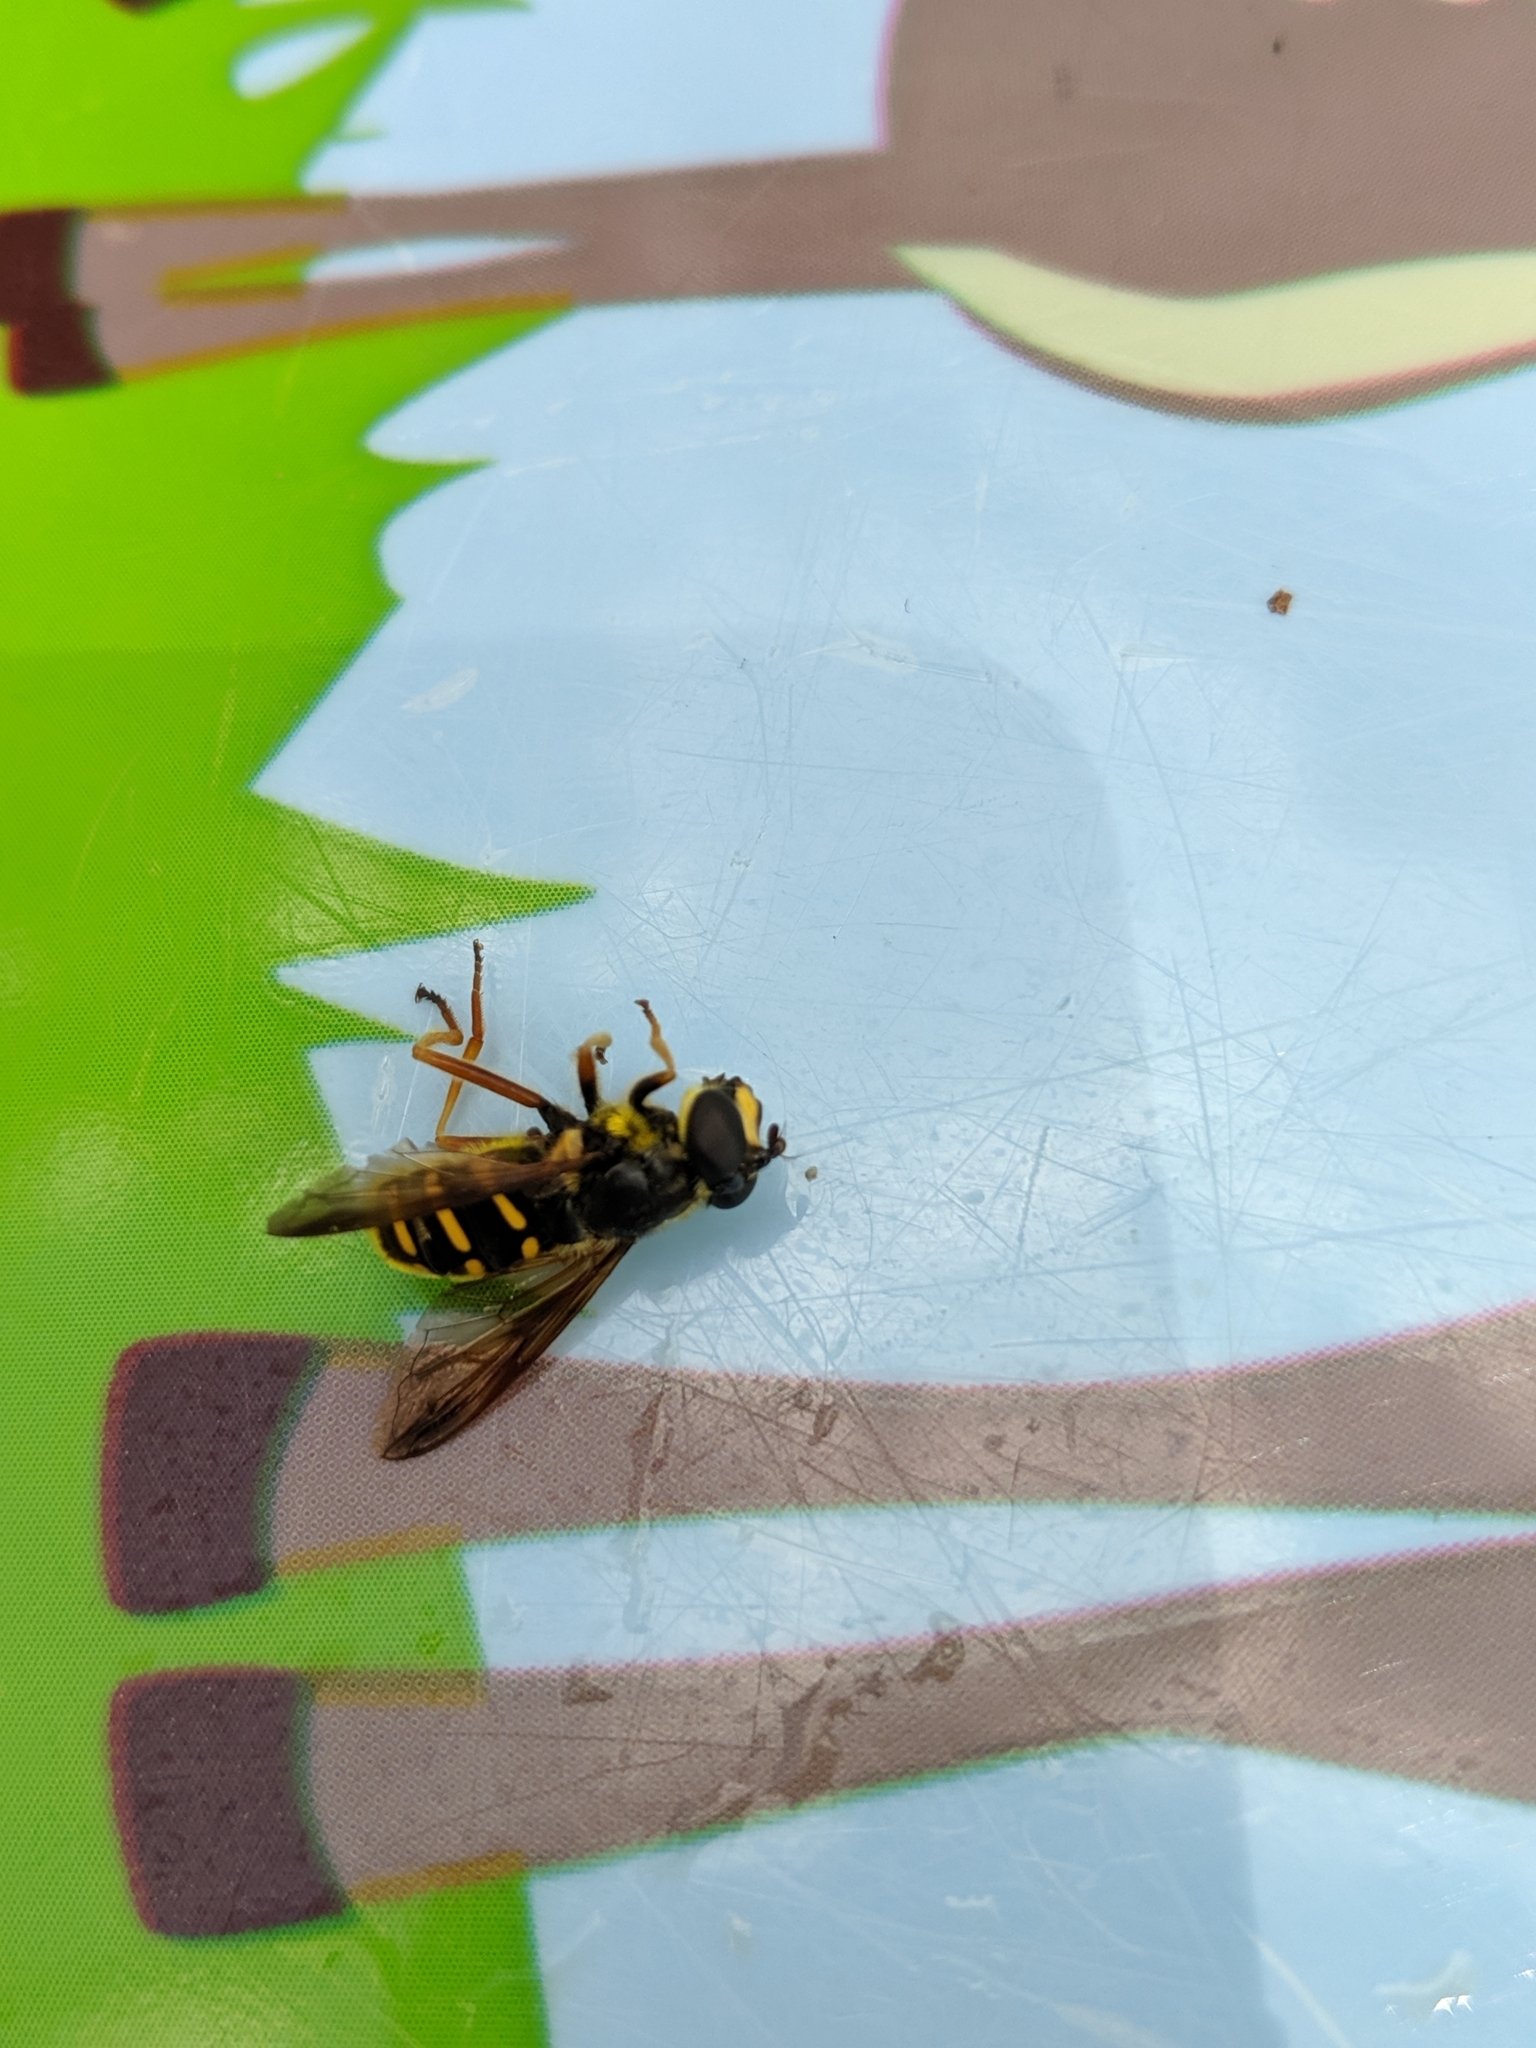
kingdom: Animalia
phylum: Arthropoda
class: Insecta
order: Diptera
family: Syrphidae
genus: Sericomyia
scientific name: Sericomyia chrysotoxoides
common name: Oblique-banded pond fly
